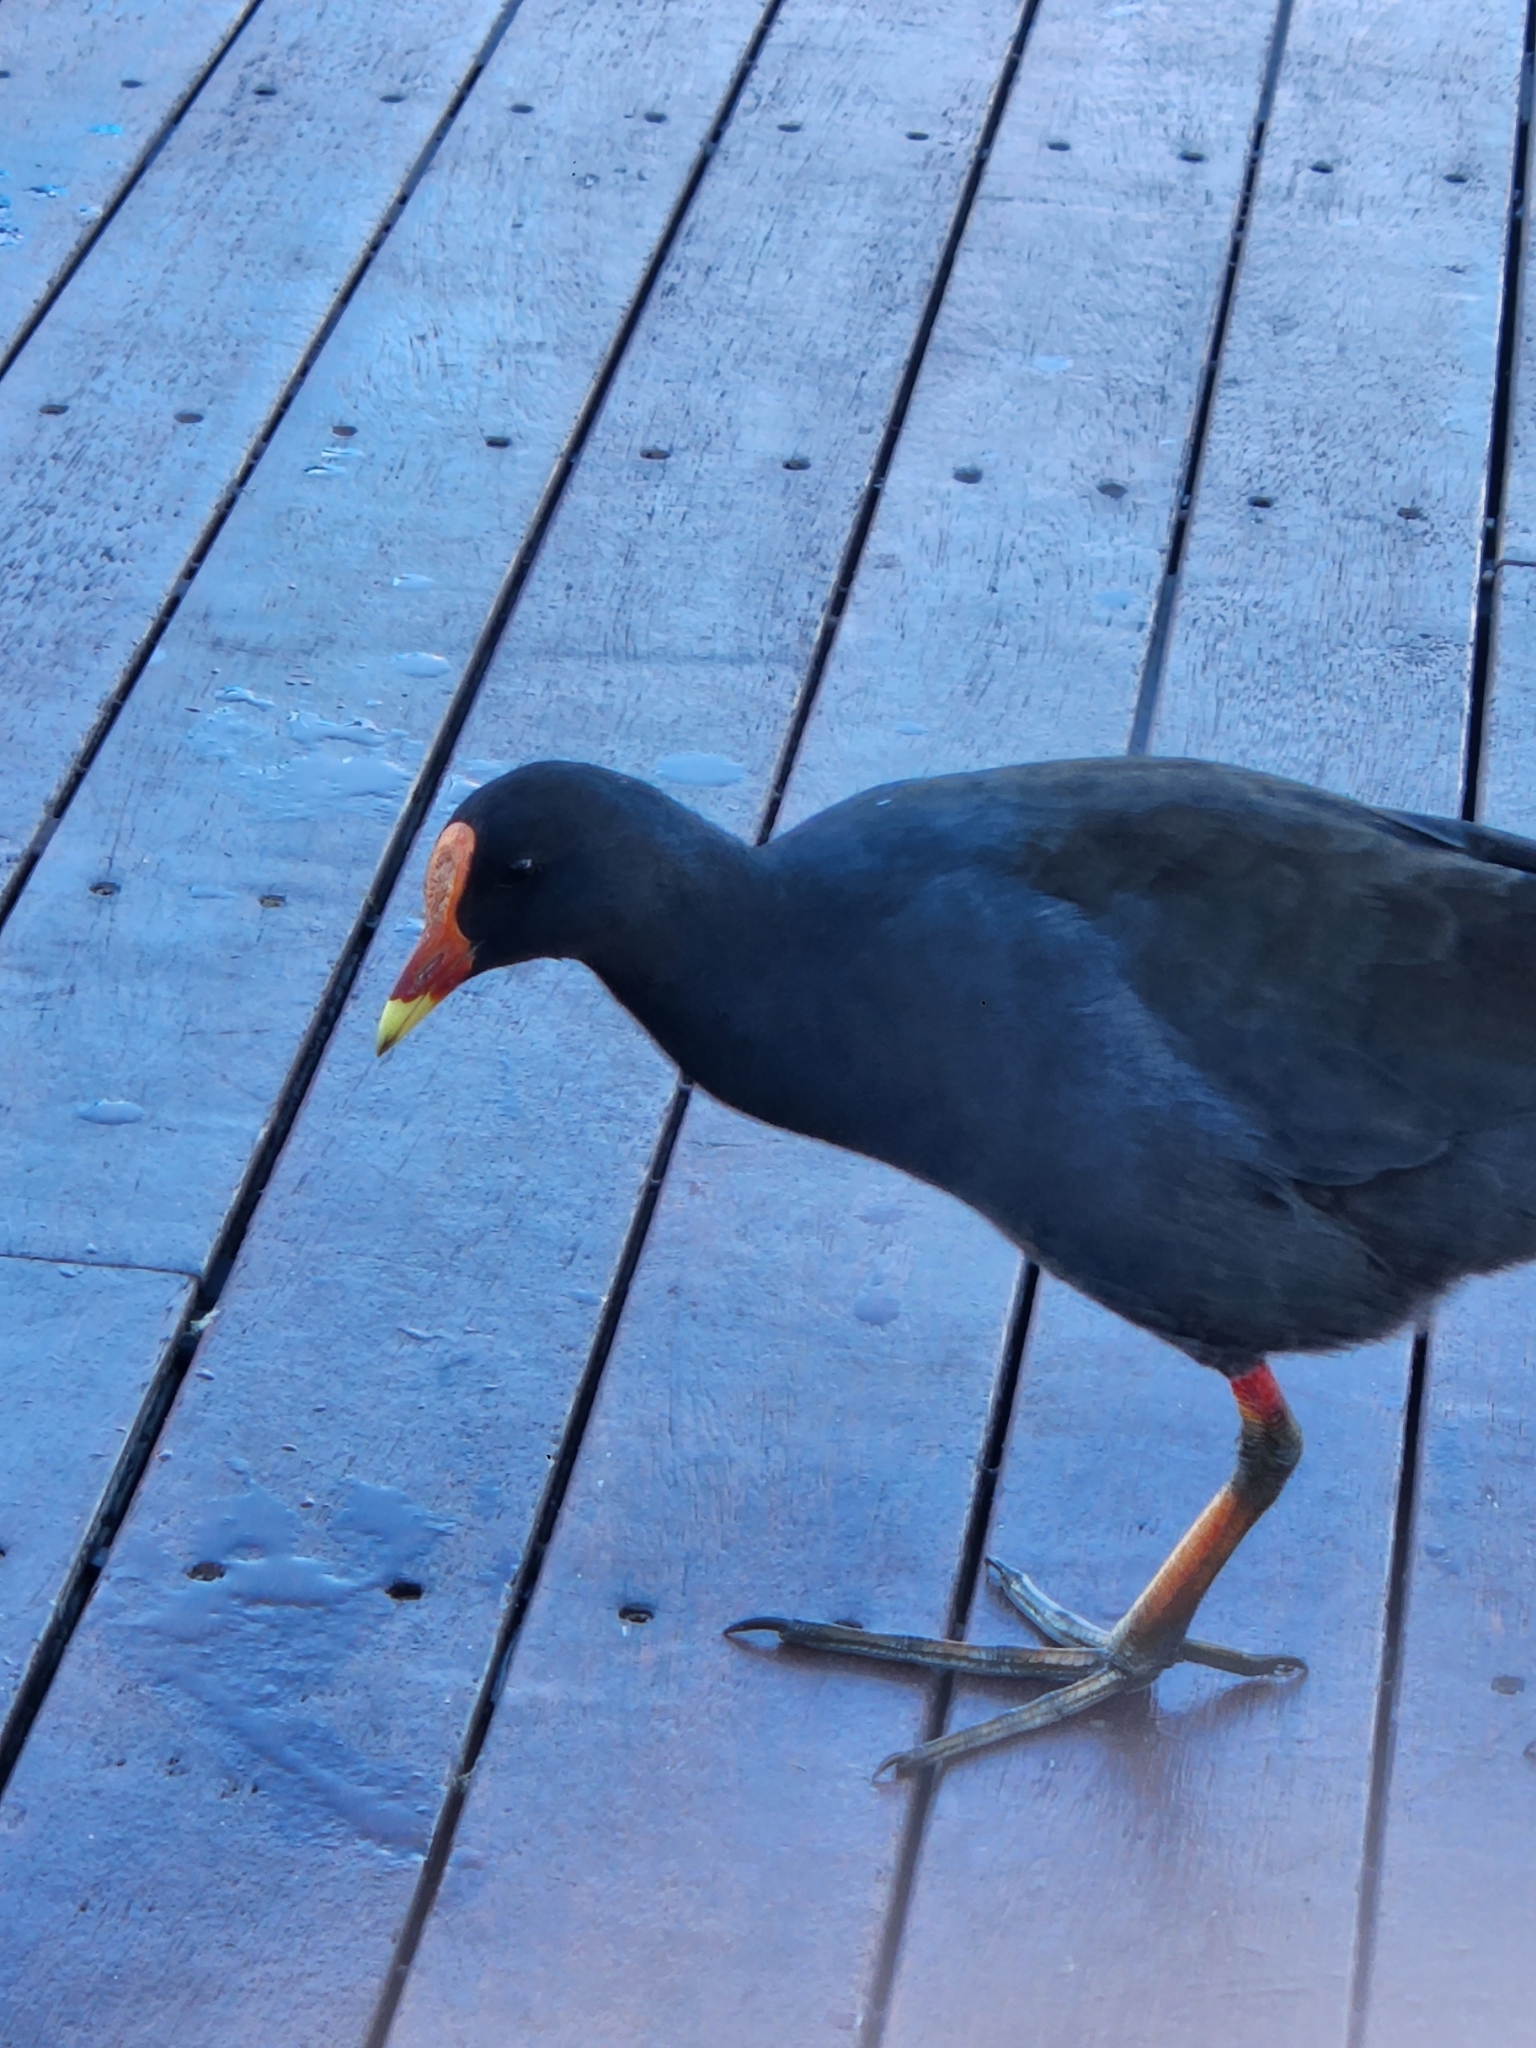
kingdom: Animalia
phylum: Chordata
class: Aves
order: Gruiformes
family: Rallidae
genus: Gallinula
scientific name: Gallinula tenebrosa
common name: Dusky moorhen
